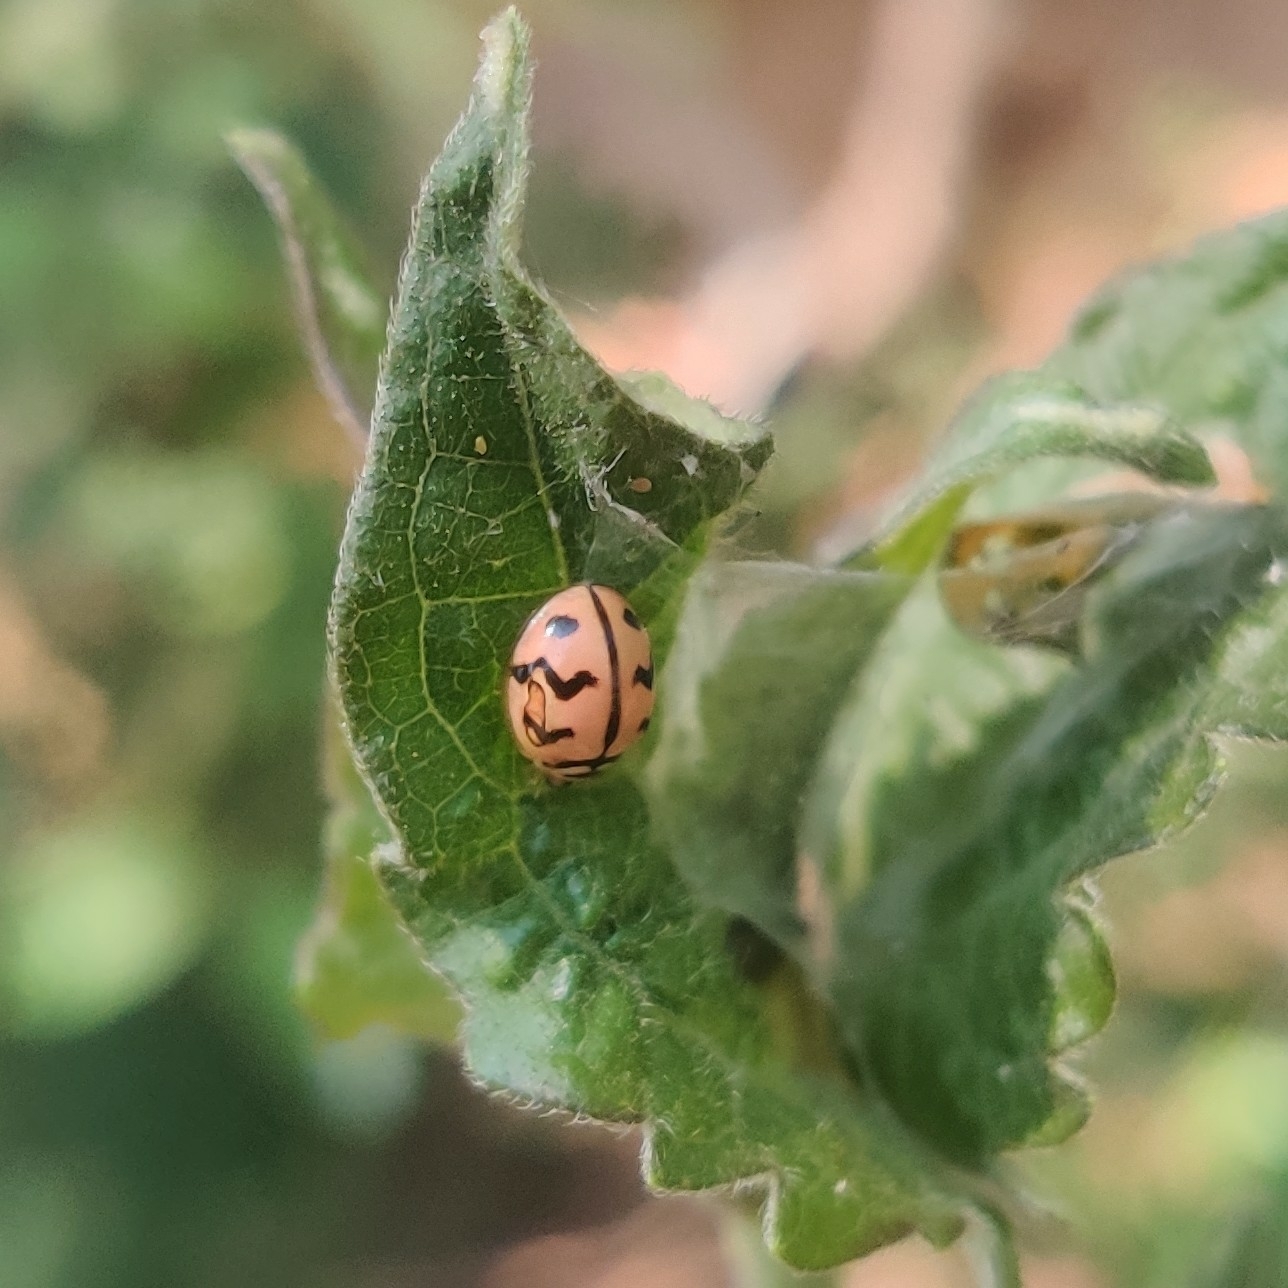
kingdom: Animalia
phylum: Arthropoda
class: Insecta
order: Coleoptera
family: Coccinellidae
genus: Cheilomenes
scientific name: Cheilomenes sexmaculata
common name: Ladybird beetle
